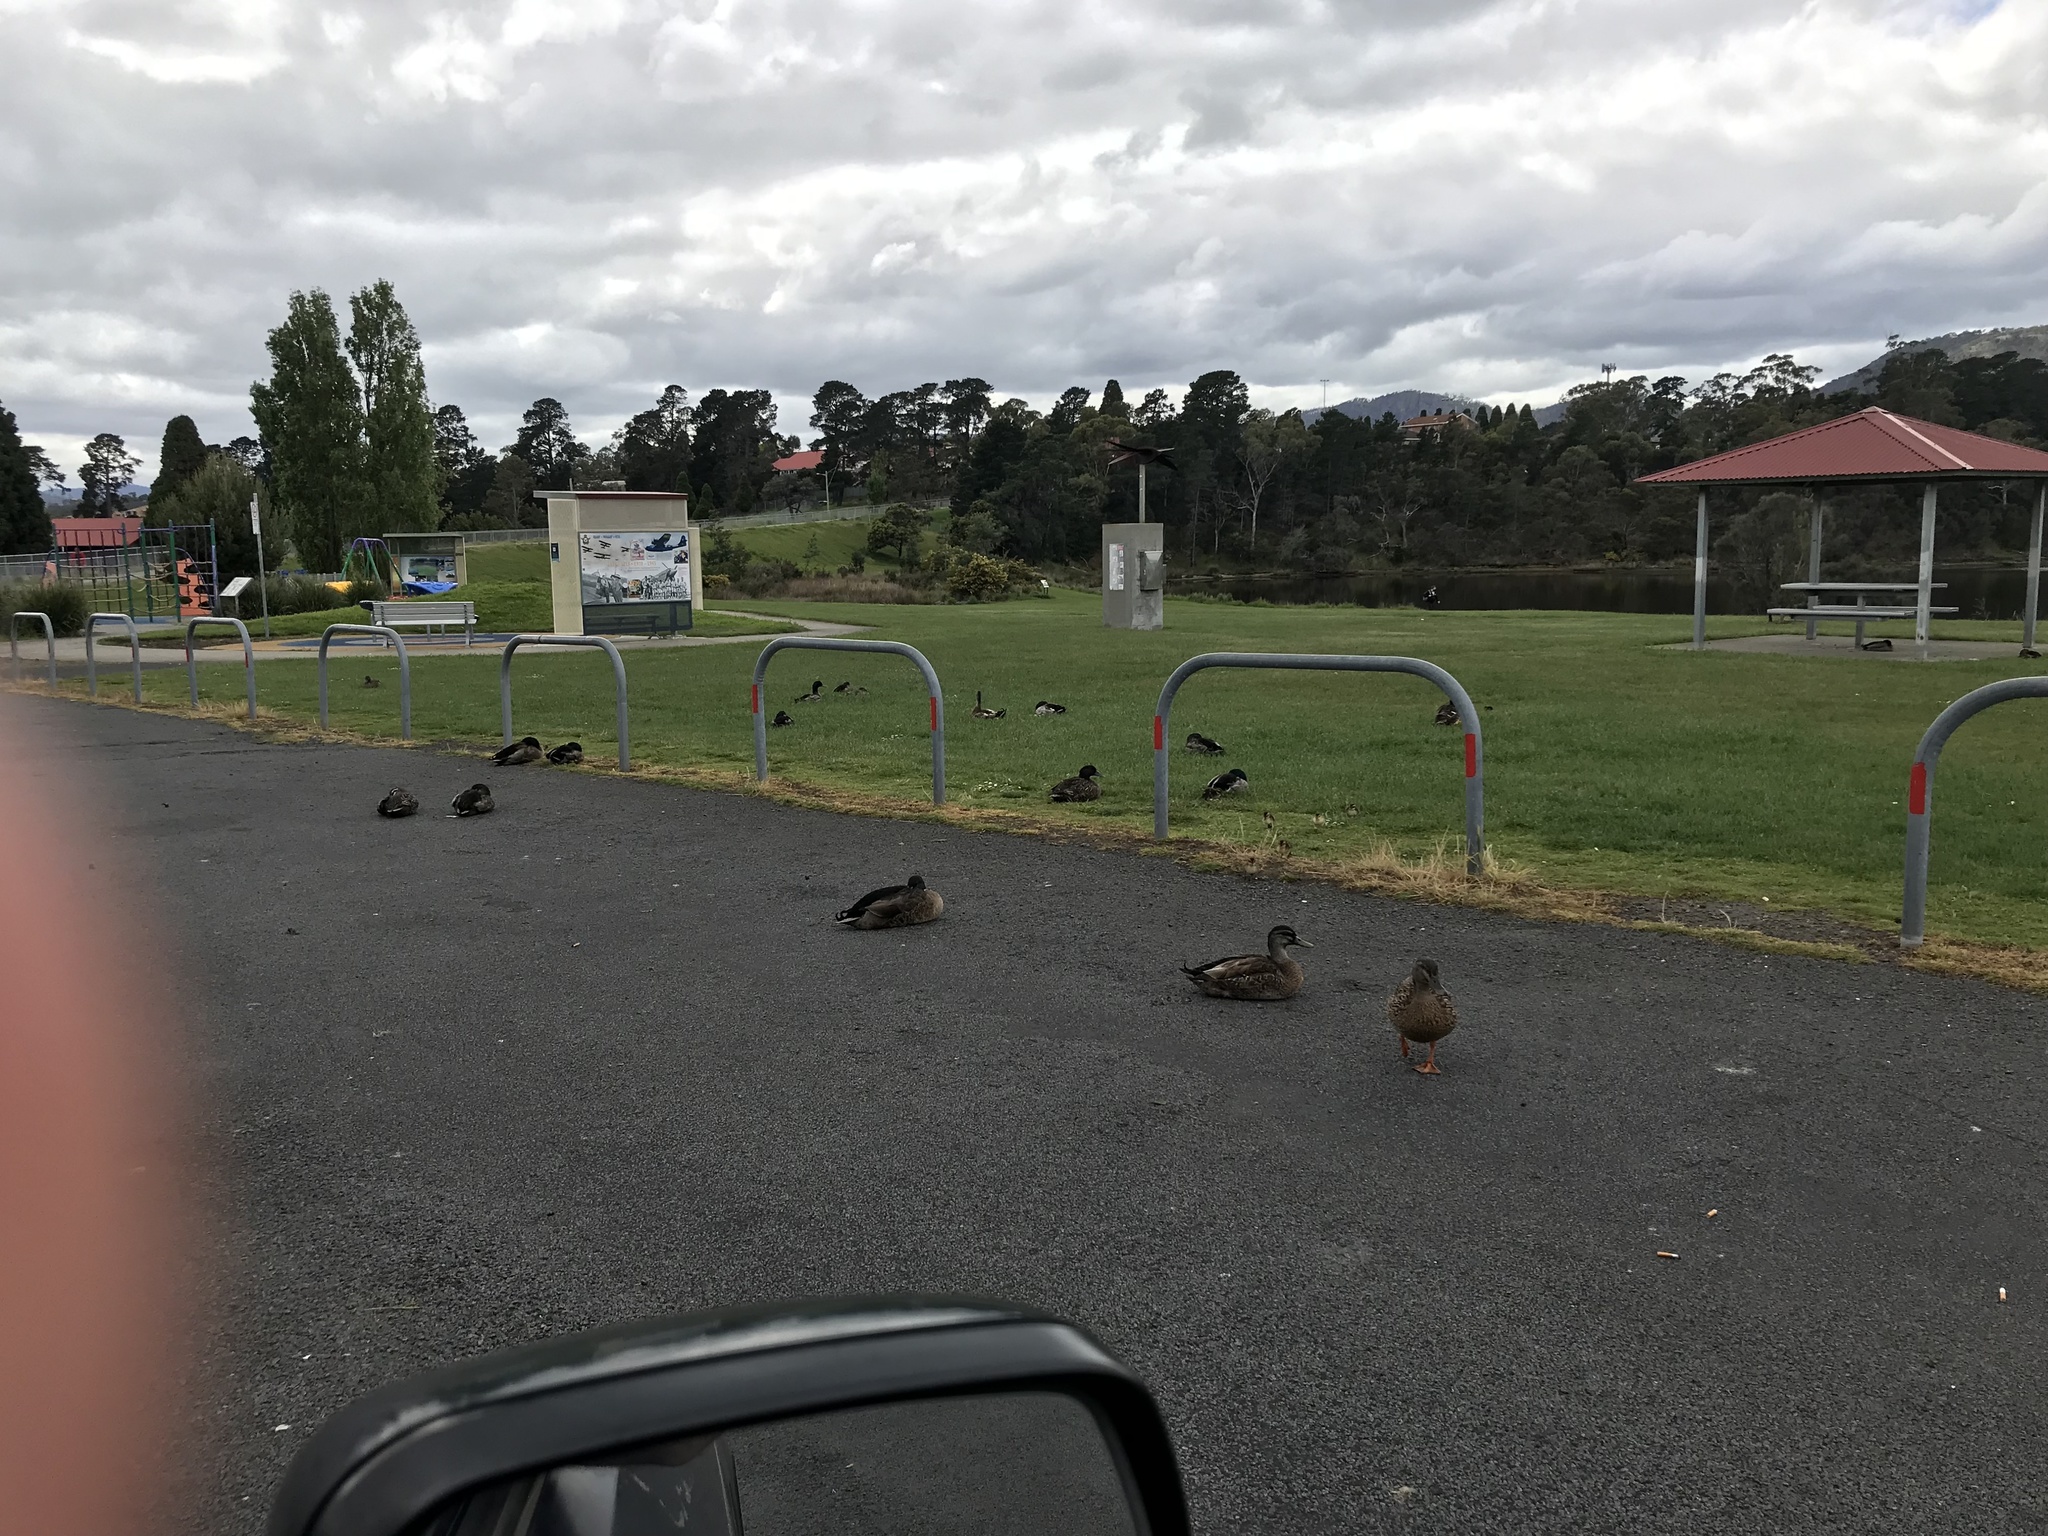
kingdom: Animalia
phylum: Chordata
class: Aves
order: Anseriformes
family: Anatidae
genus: Anas
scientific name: Anas
